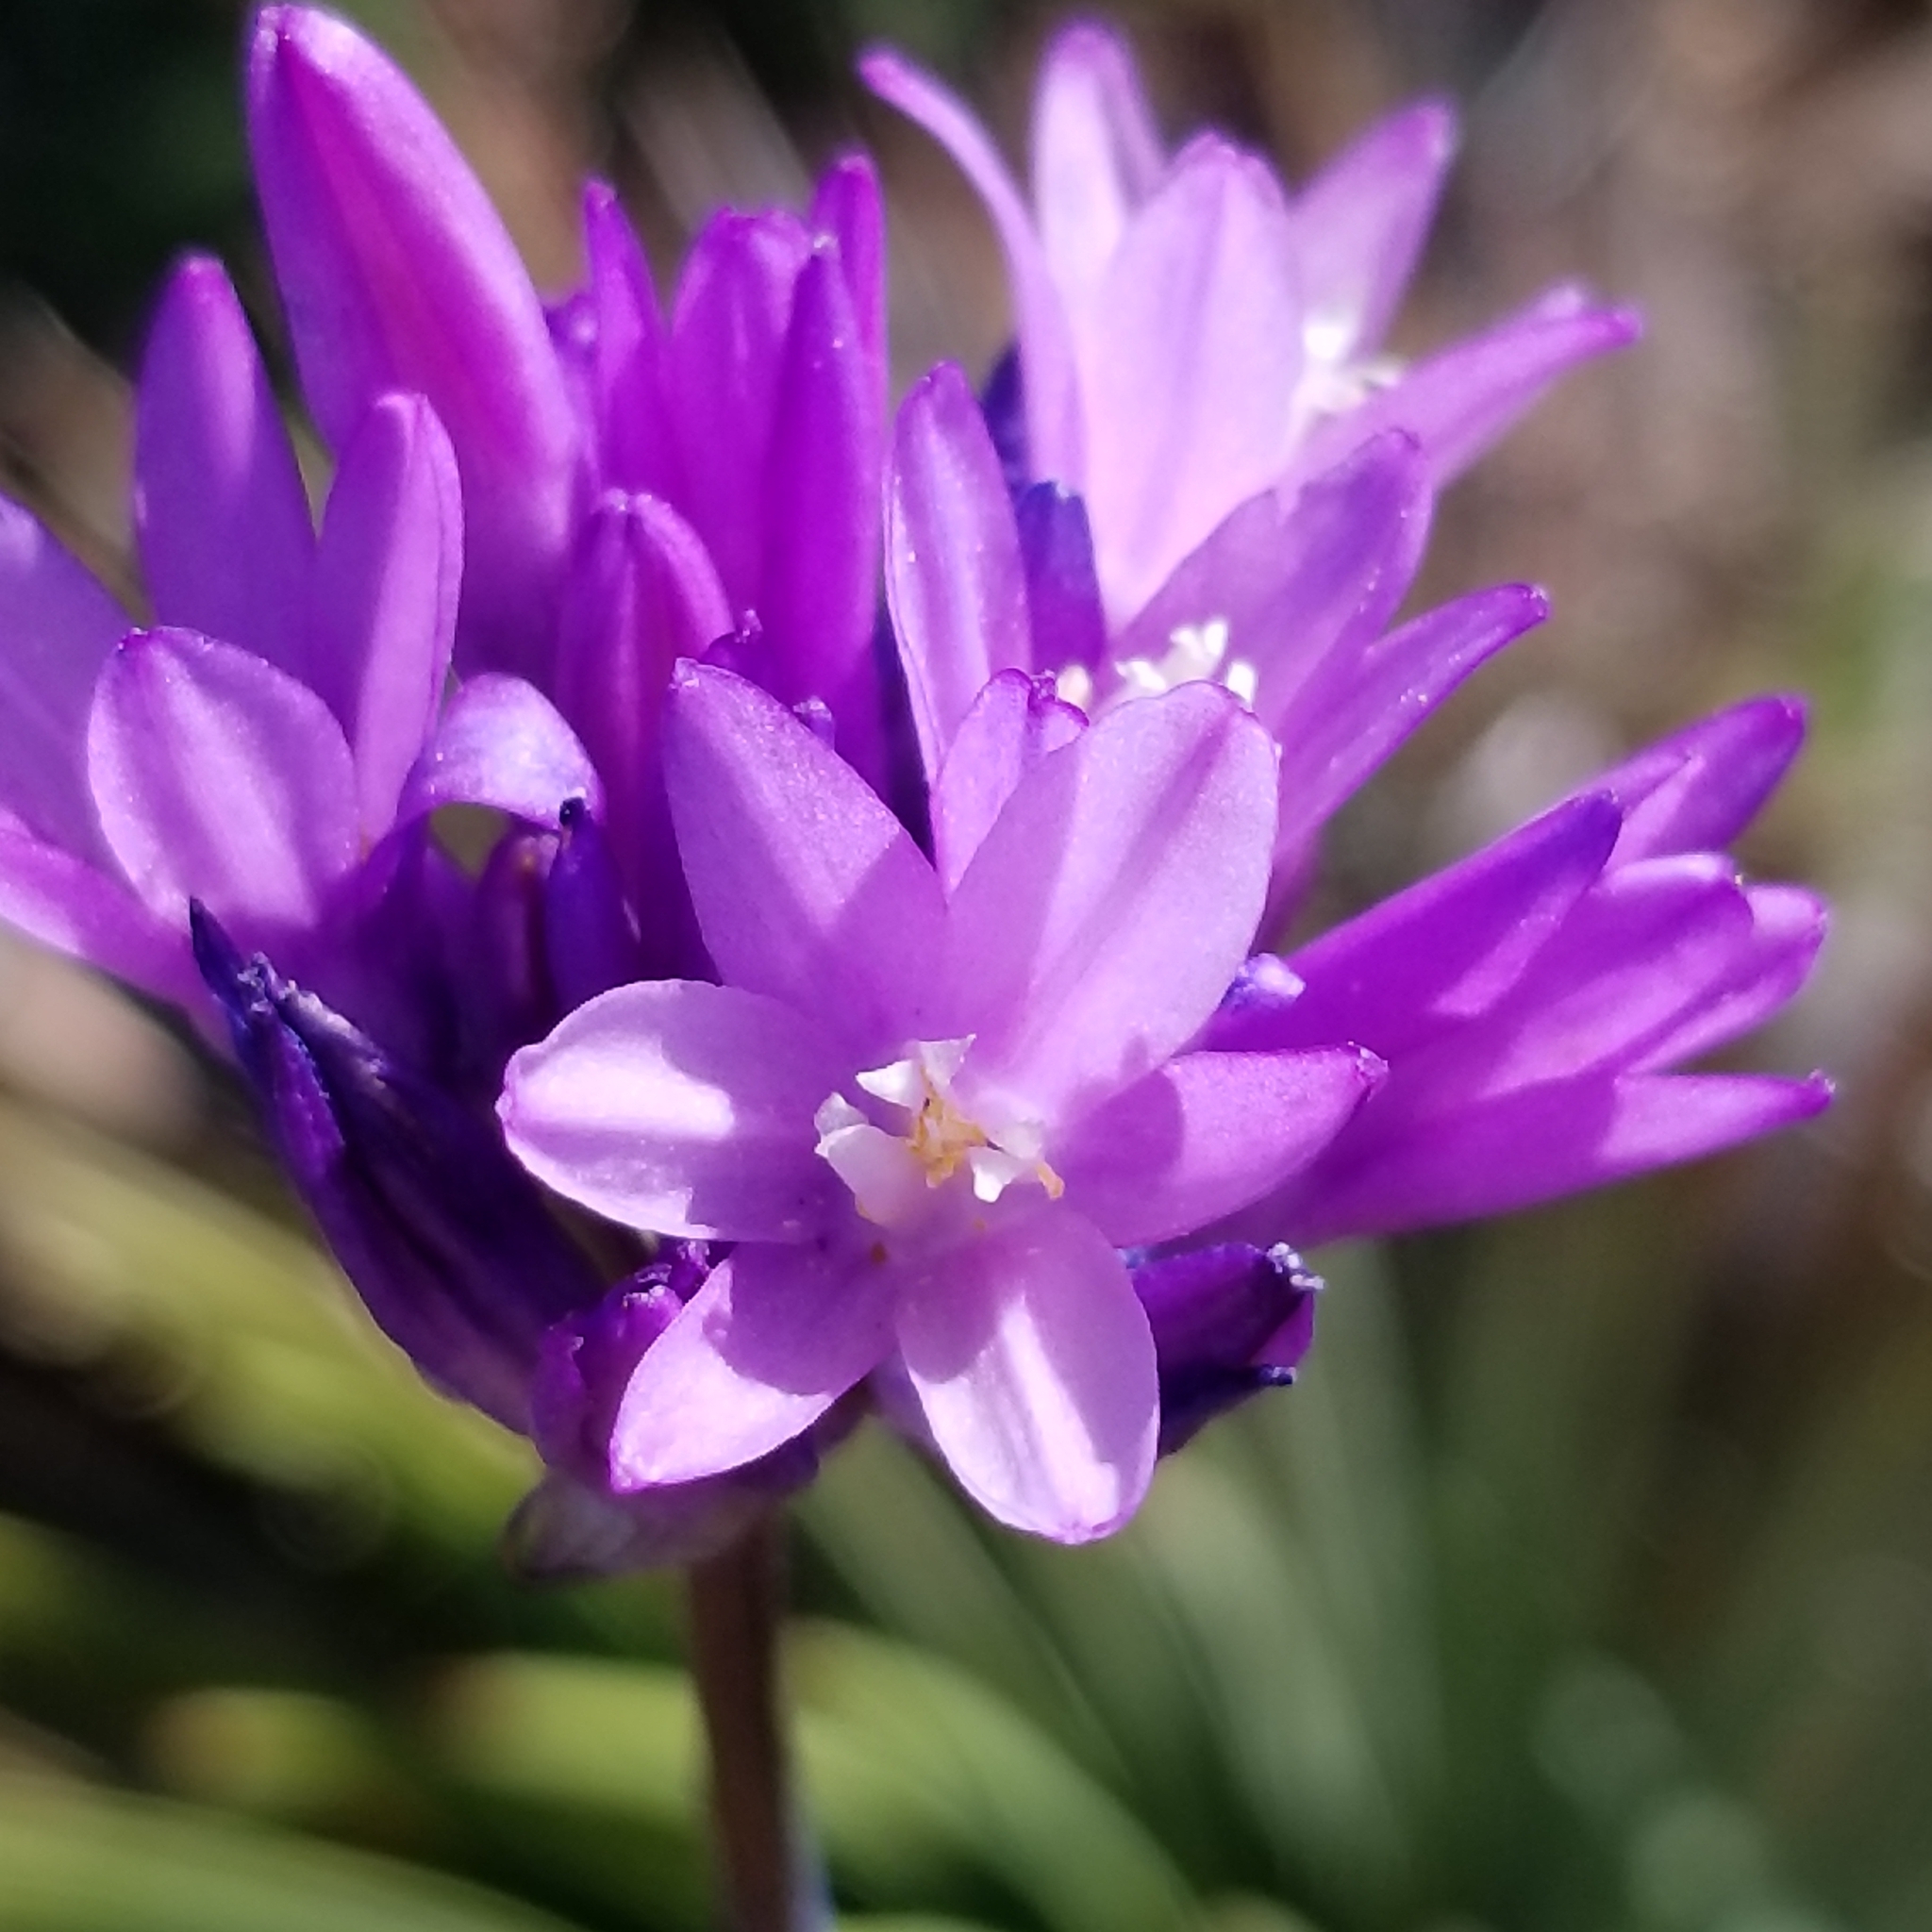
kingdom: Plantae
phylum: Tracheophyta
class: Liliopsida
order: Asparagales
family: Asparagaceae
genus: Dipterostemon
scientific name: Dipterostemon capitatus
